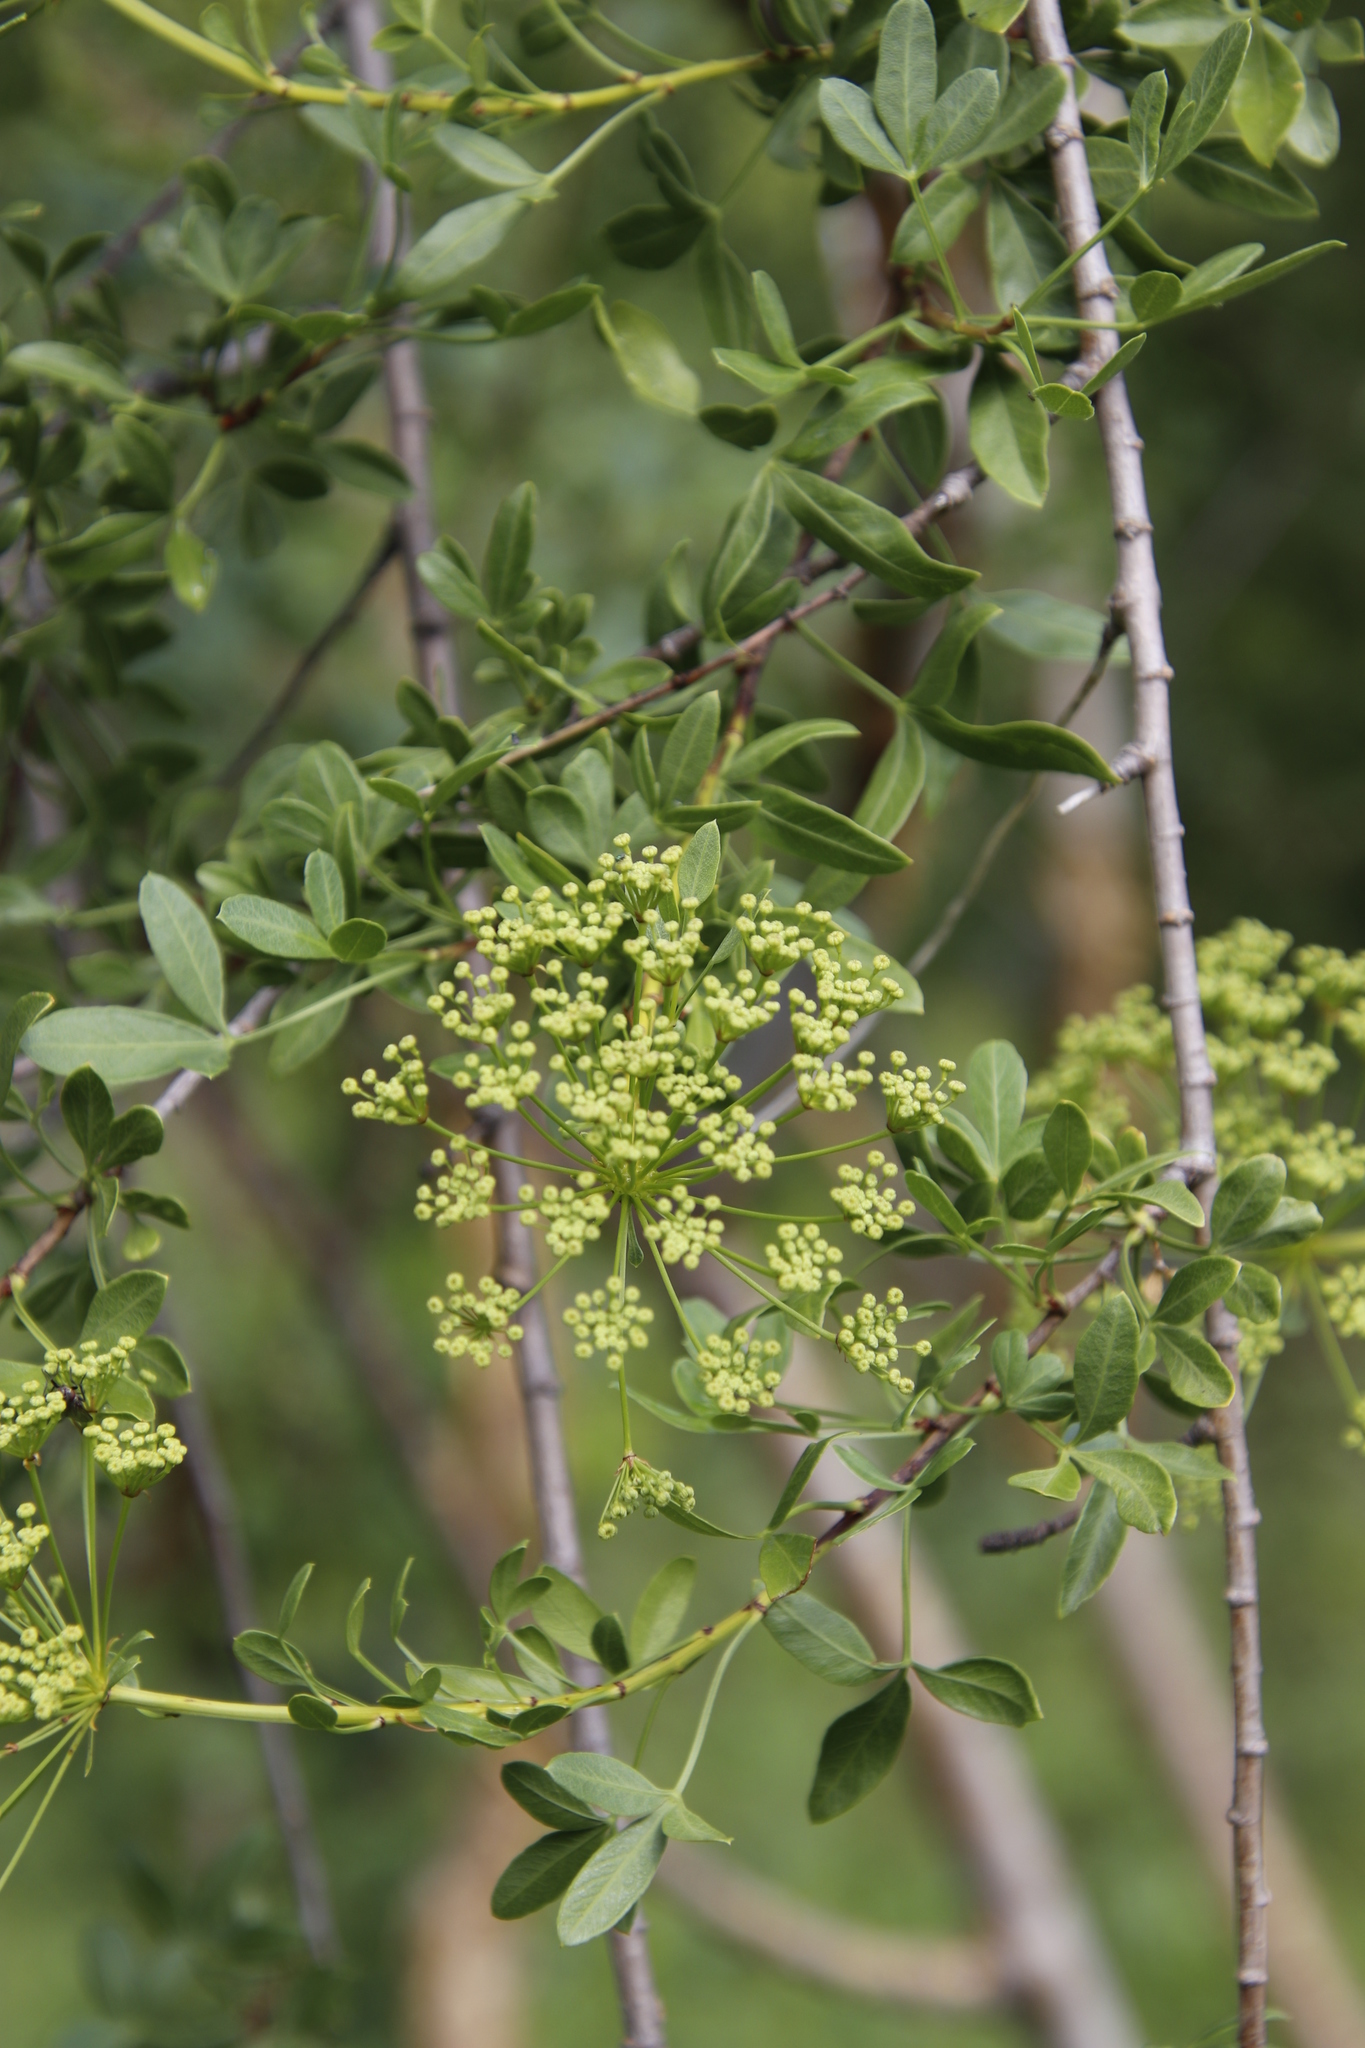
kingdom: Plantae
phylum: Tracheophyta
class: Magnoliopsida
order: Apiales
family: Apiaceae
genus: Polemannia
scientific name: Polemannia simplicior
